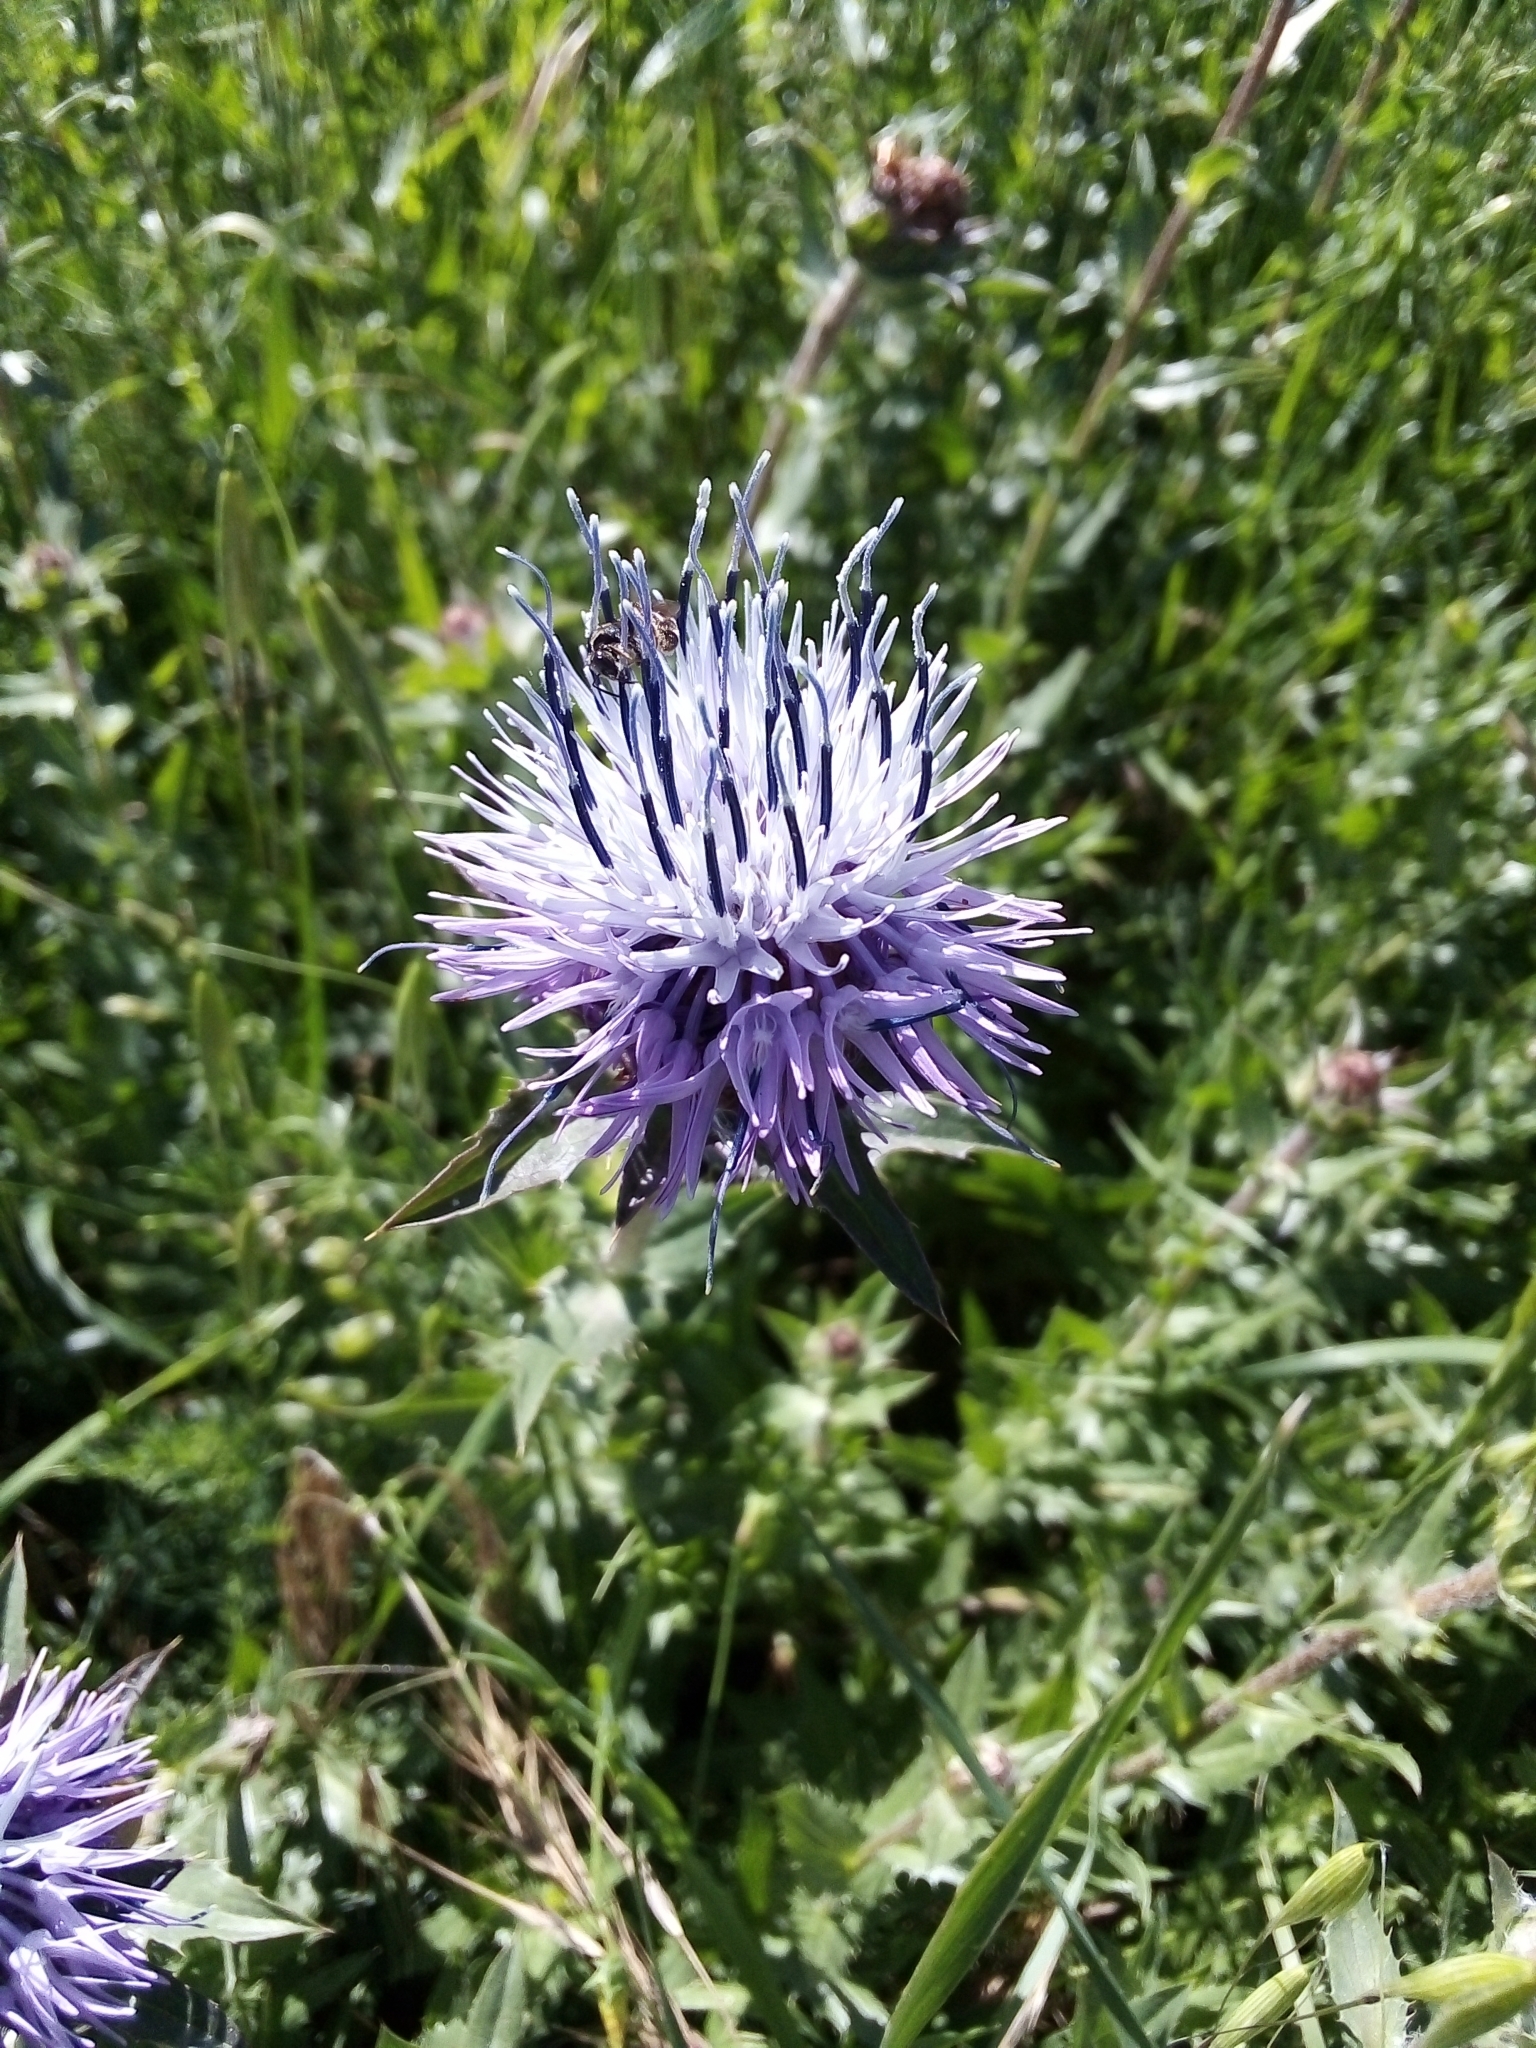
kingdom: Plantae
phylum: Tracheophyta
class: Magnoliopsida
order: Asterales
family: Asteraceae
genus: Carduncellus
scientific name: Carduncellus caeruleus
